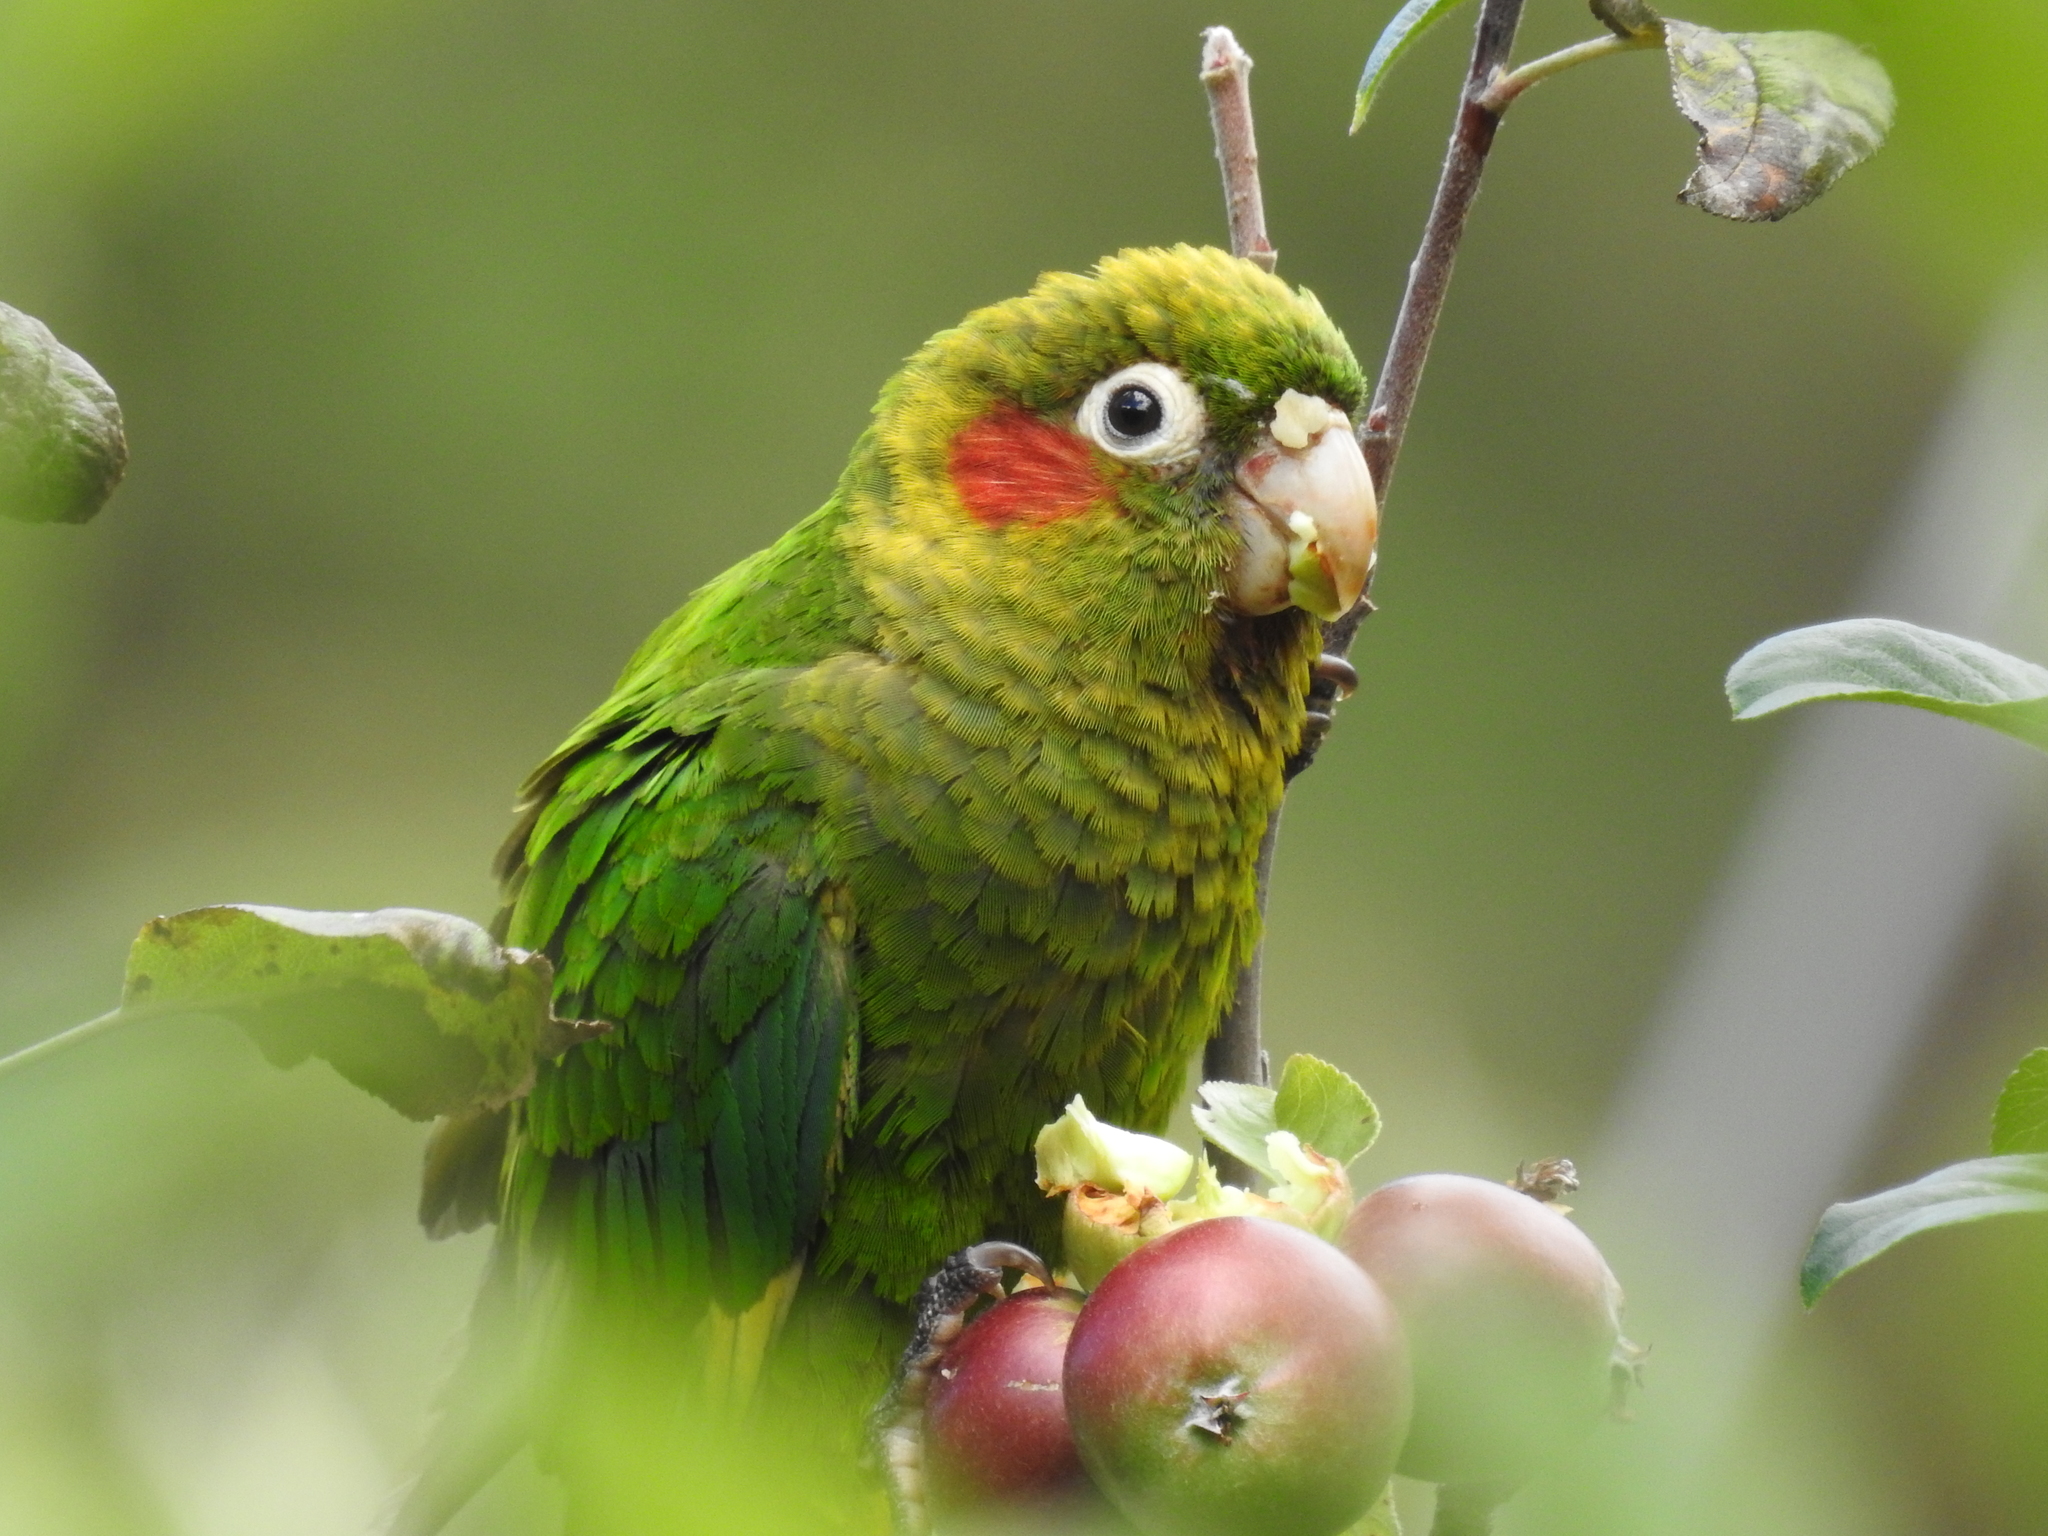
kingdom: Animalia
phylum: Chordata
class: Aves
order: Psittaciformes
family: Psittacidae
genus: Pyrrhura
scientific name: Pyrrhura hoffmanni
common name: Sulphur-winged parakeet
